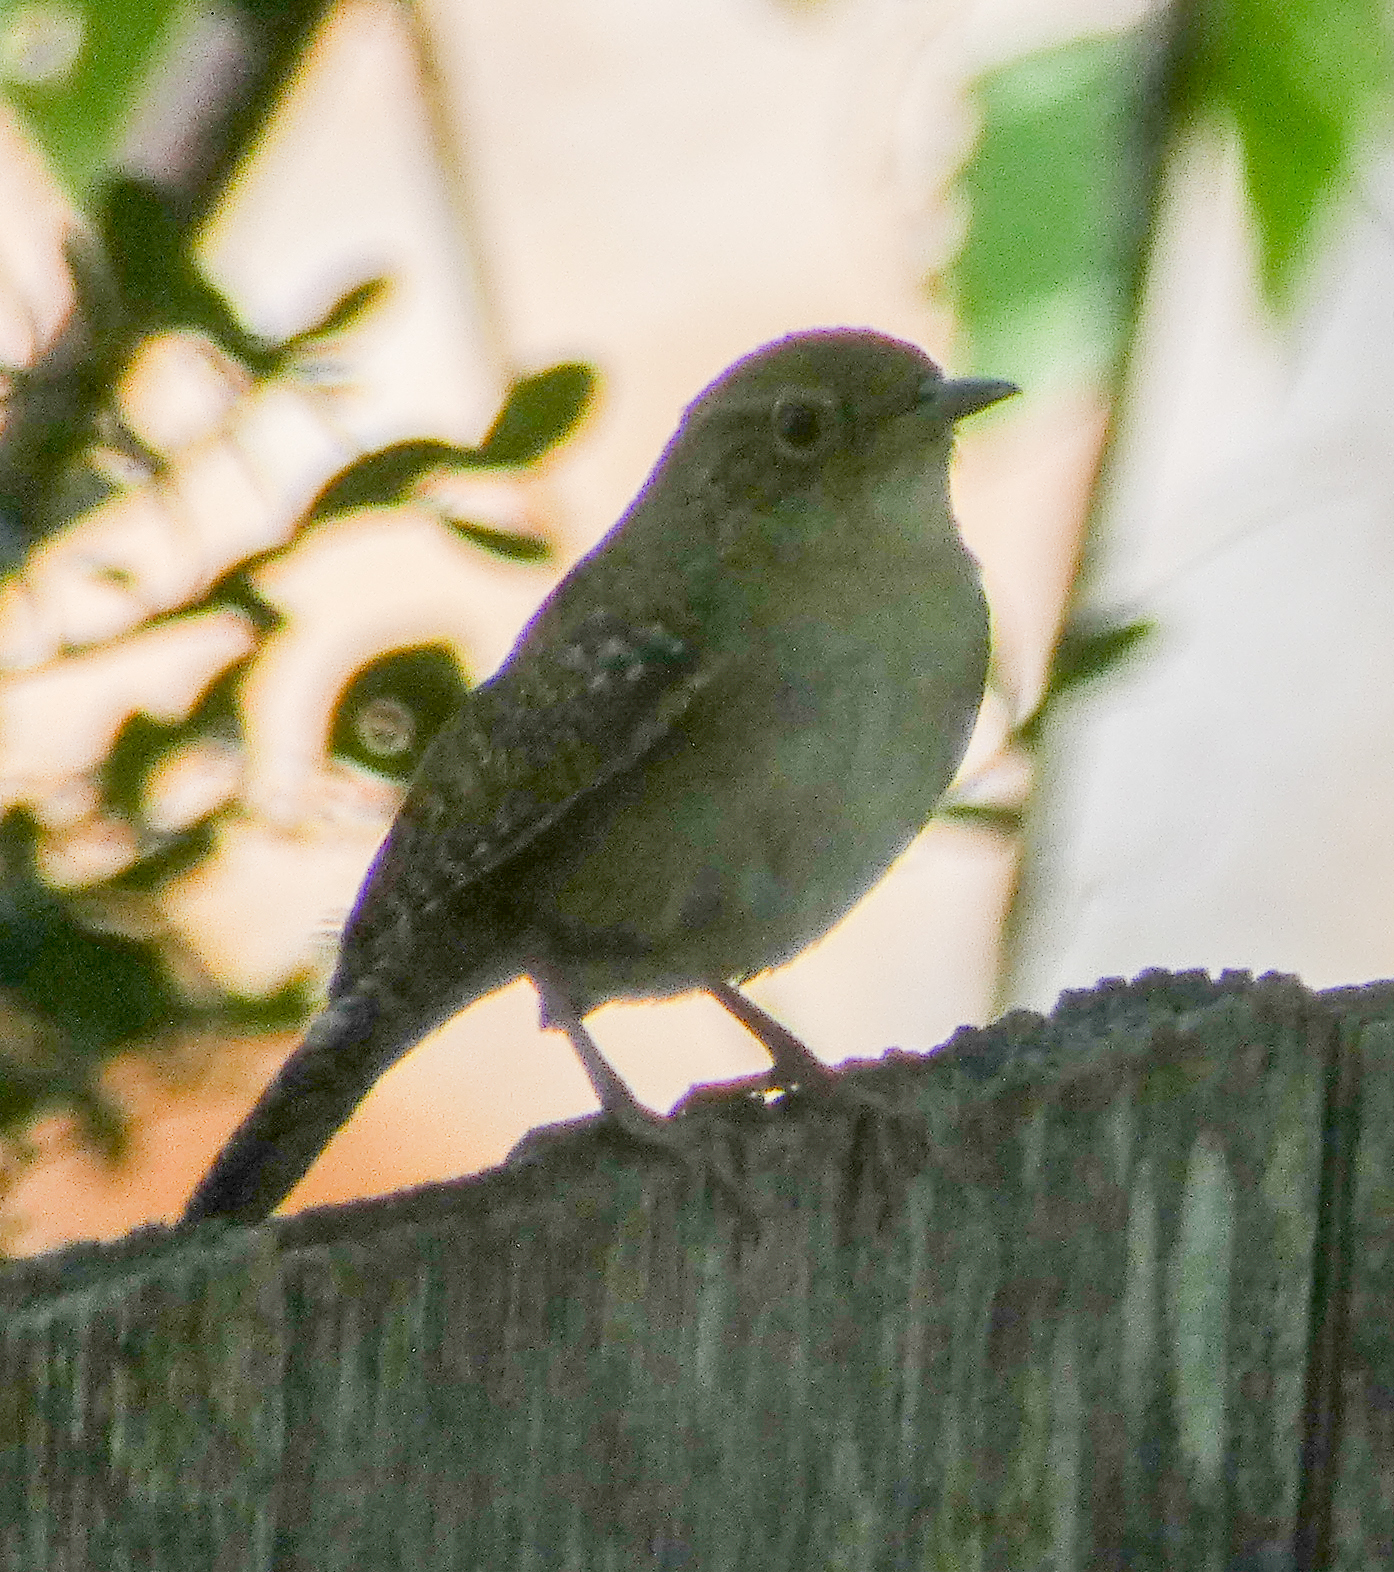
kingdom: Animalia
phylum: Chordata
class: Aves
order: Passeriformes
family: Troglodytidae
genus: Troglodytes
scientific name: Troglodytes aedon
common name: House wren
